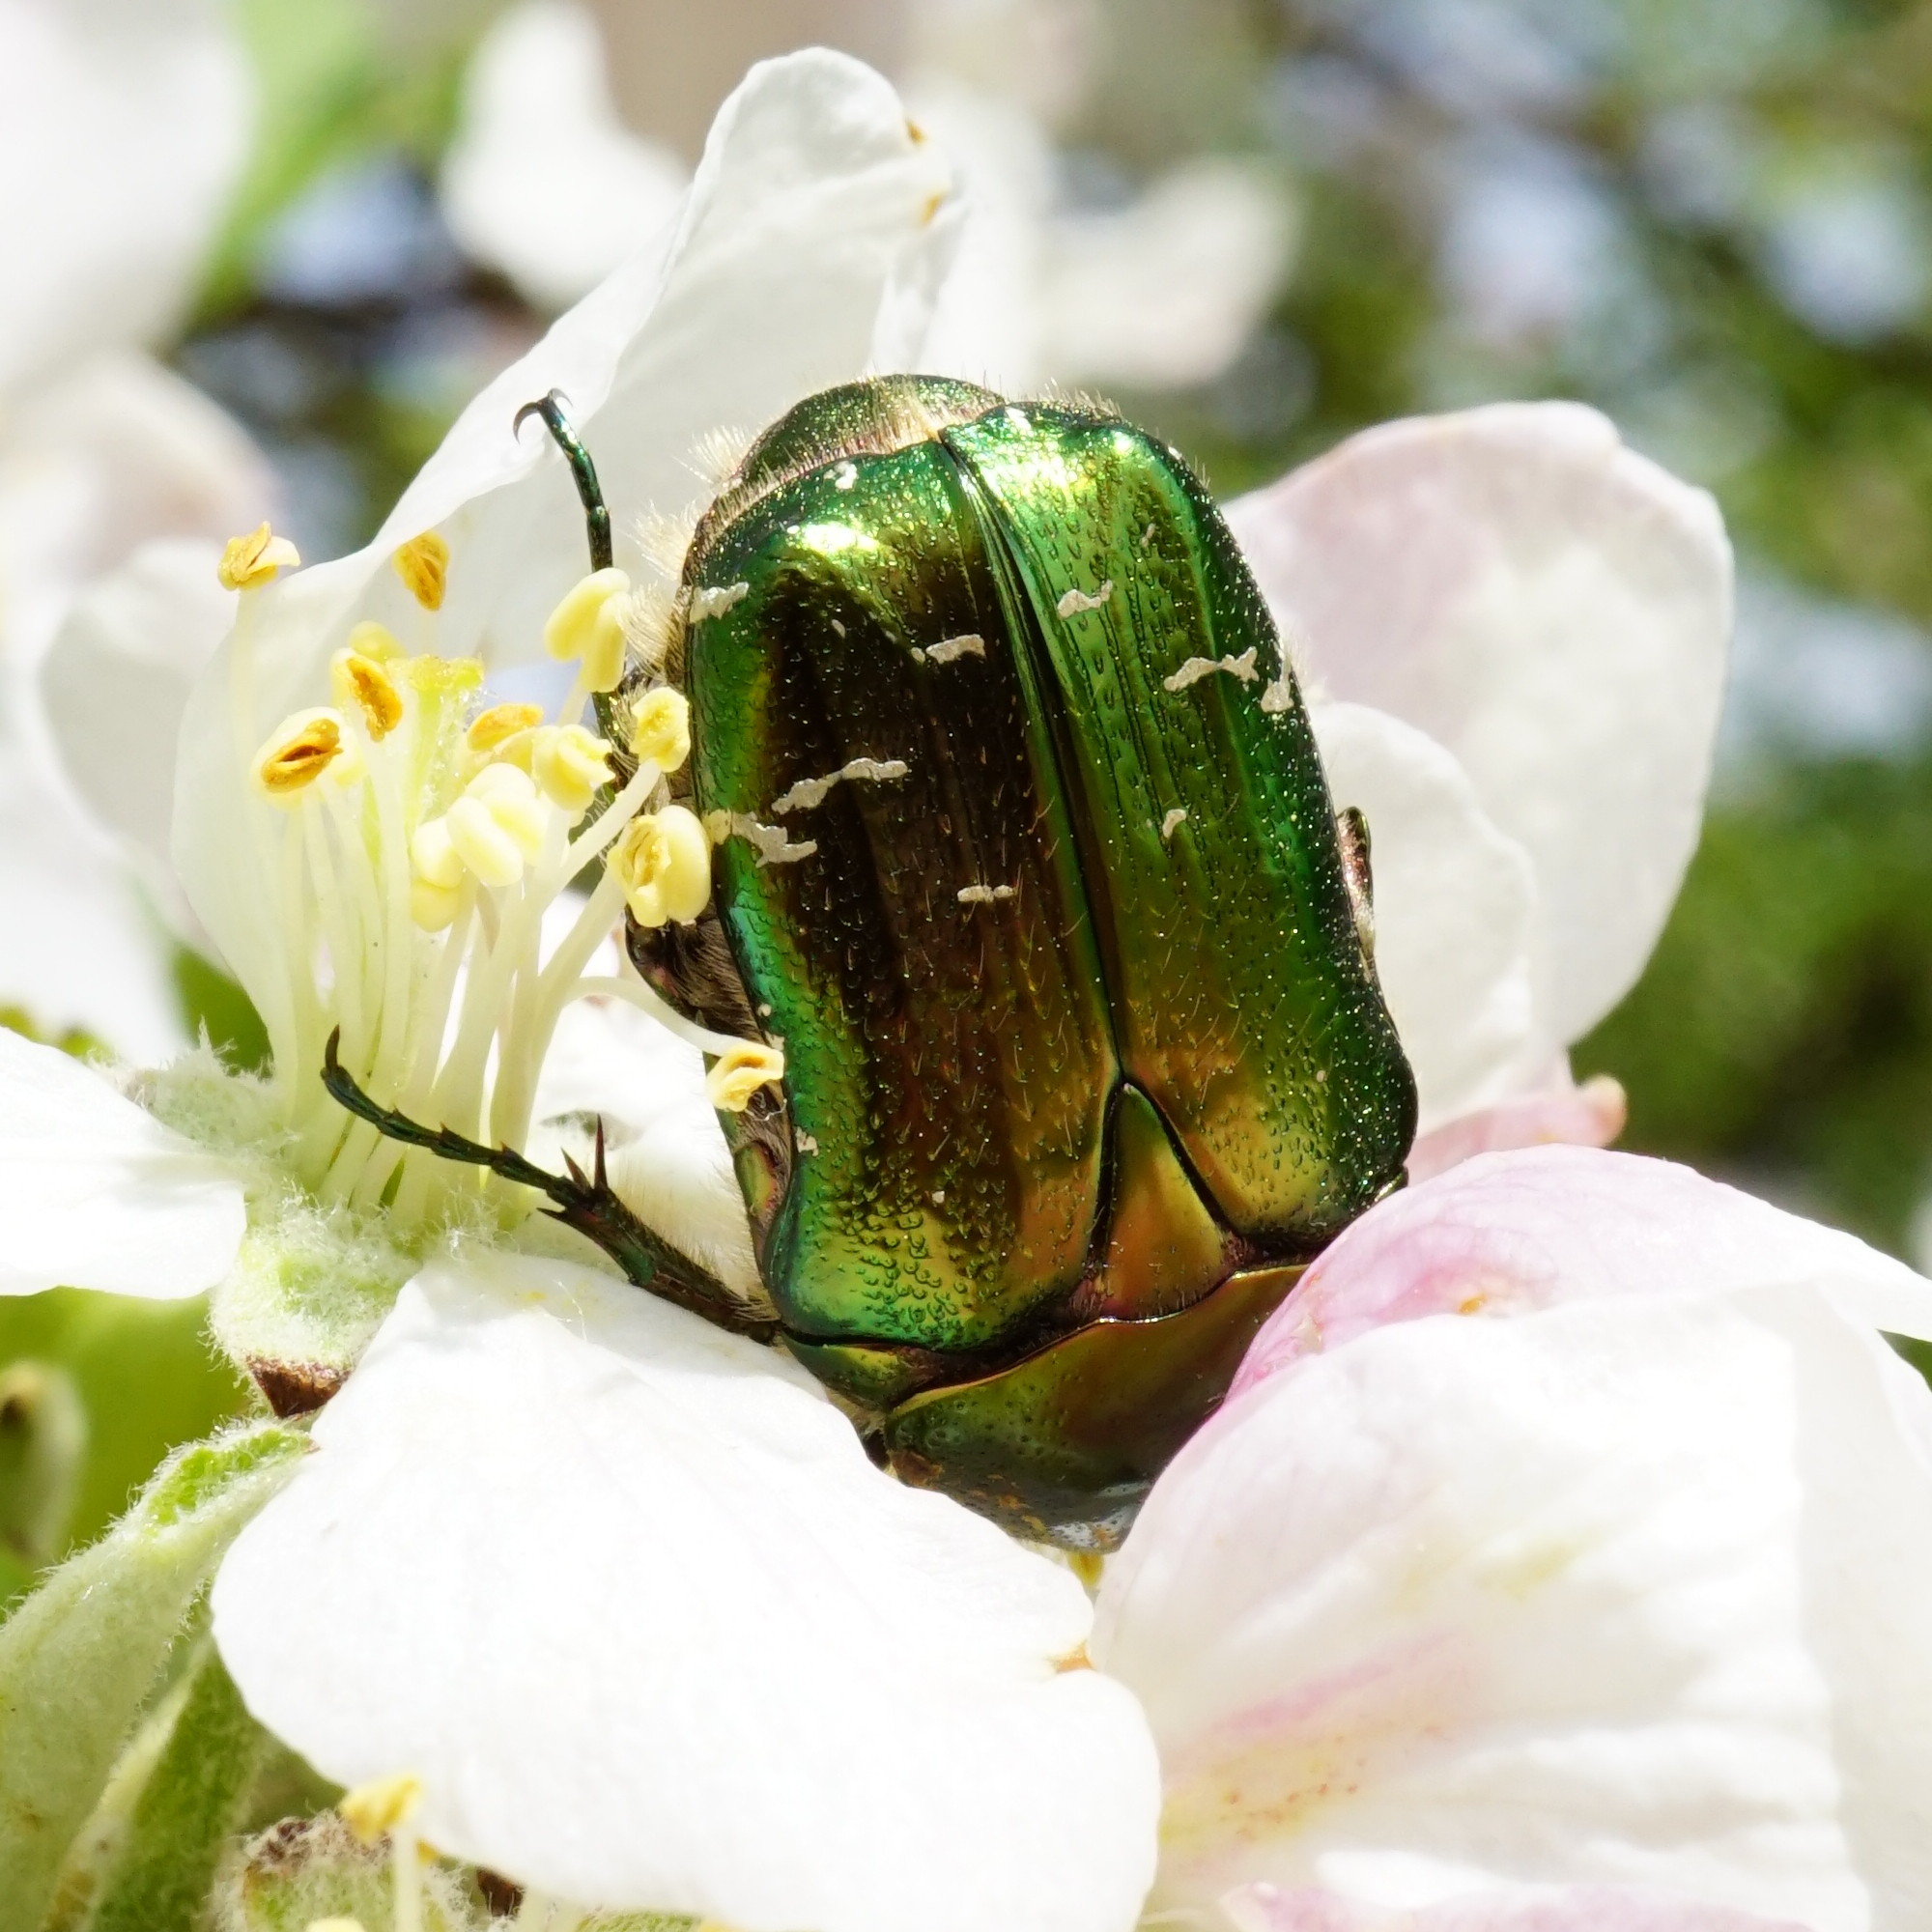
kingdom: Animalia
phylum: Arthropoda
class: Insecta
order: Coleoptera
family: Scarabaeidae
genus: Cetonia
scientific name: Cetonia aurata
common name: Rose chafer
